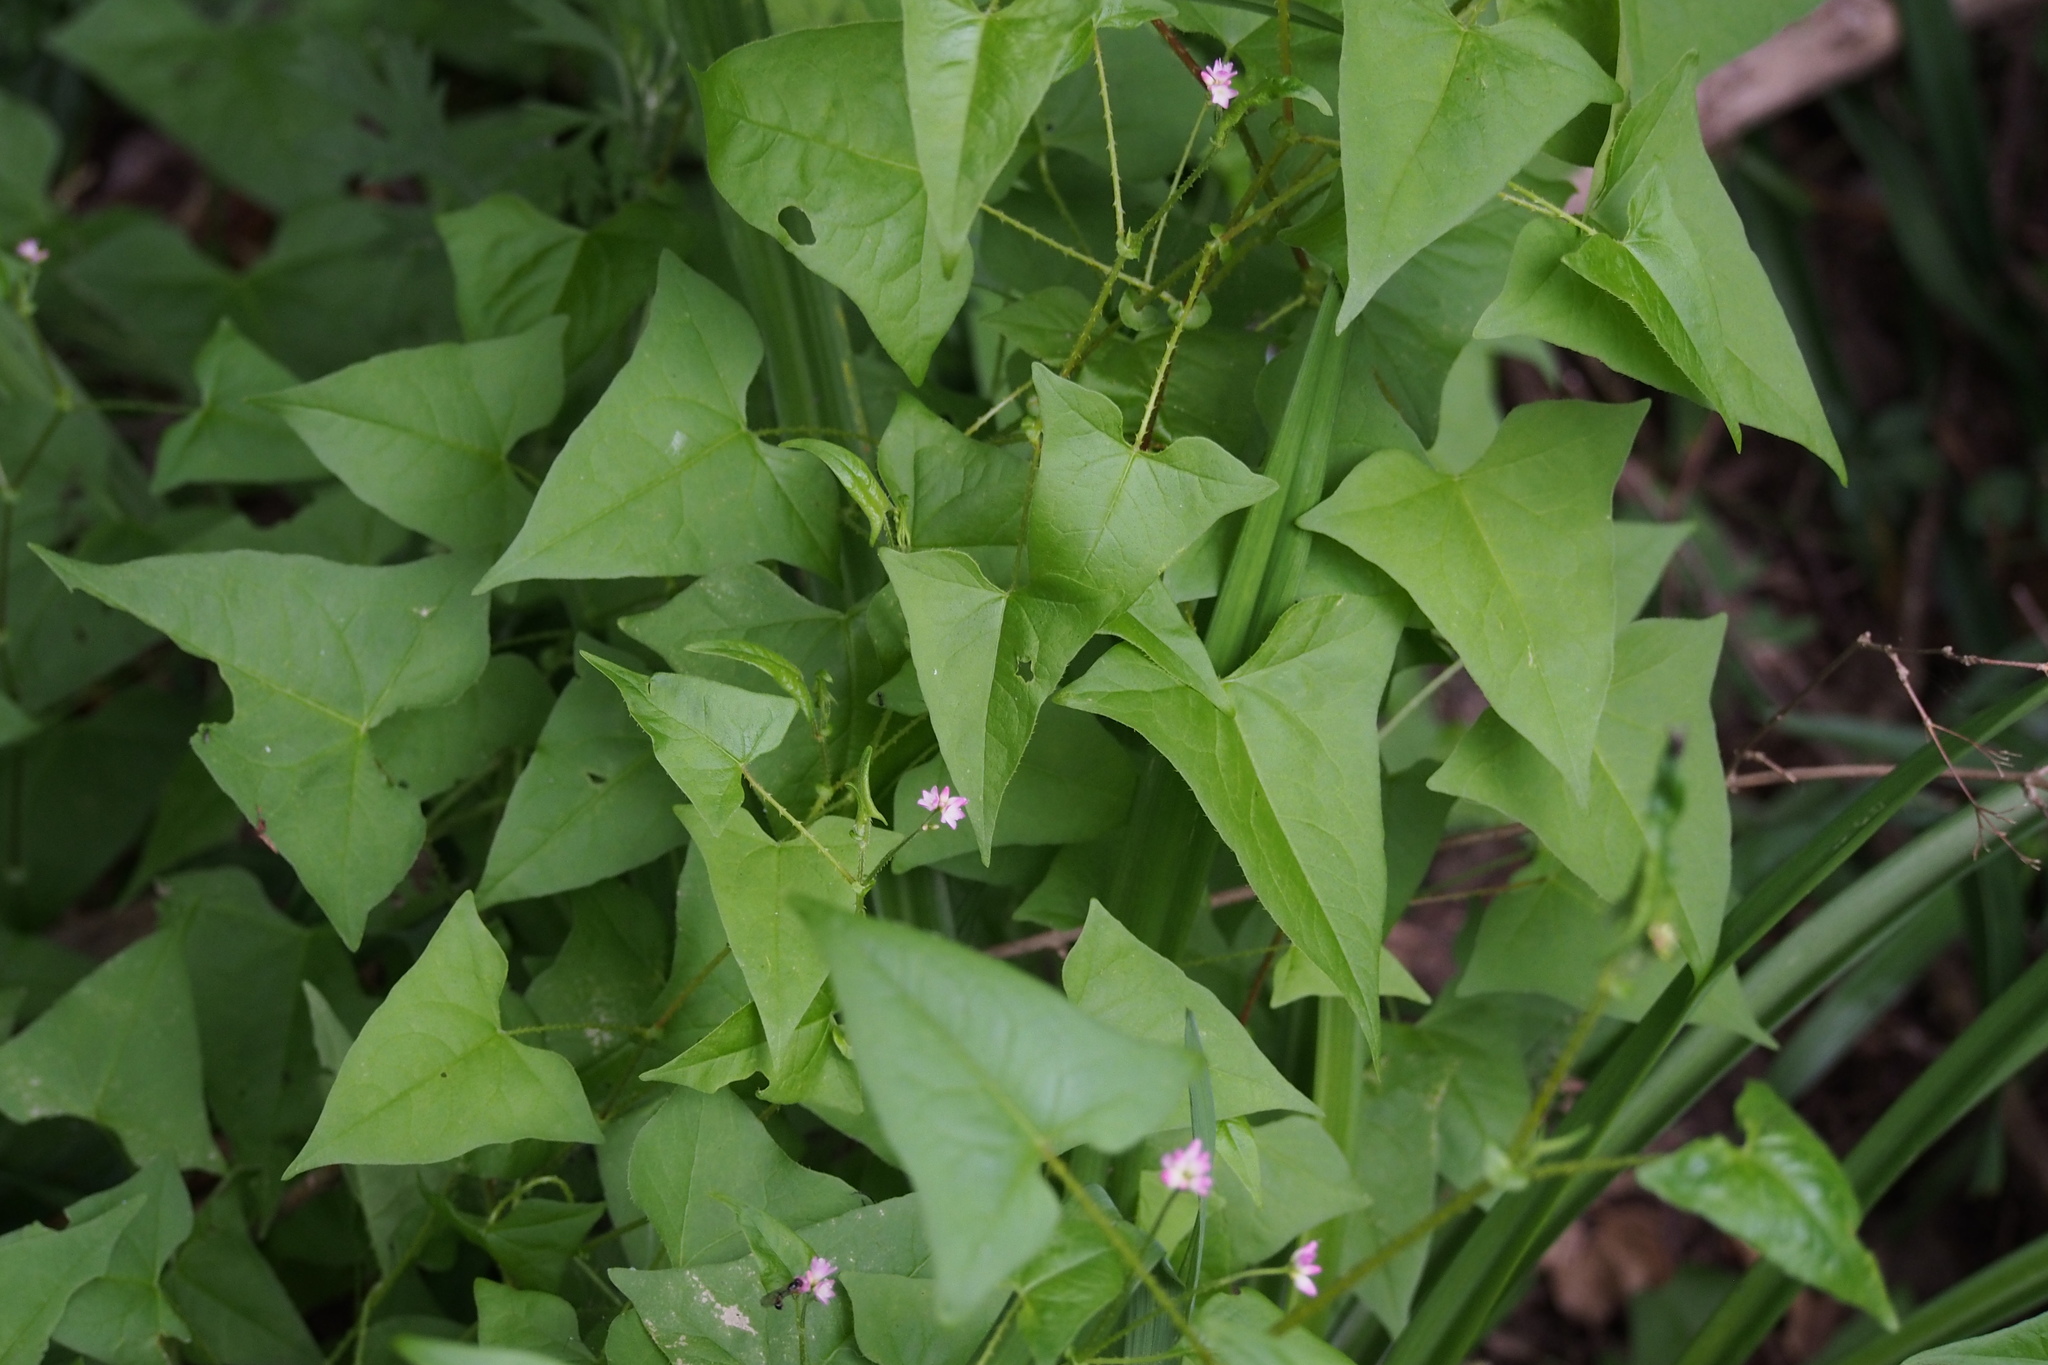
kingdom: Plantae
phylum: Tracheophyta
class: Magnoliopsida
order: Caryophyllales
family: Polygonaceae
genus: Persicaria
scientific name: Persicaria senticosa
